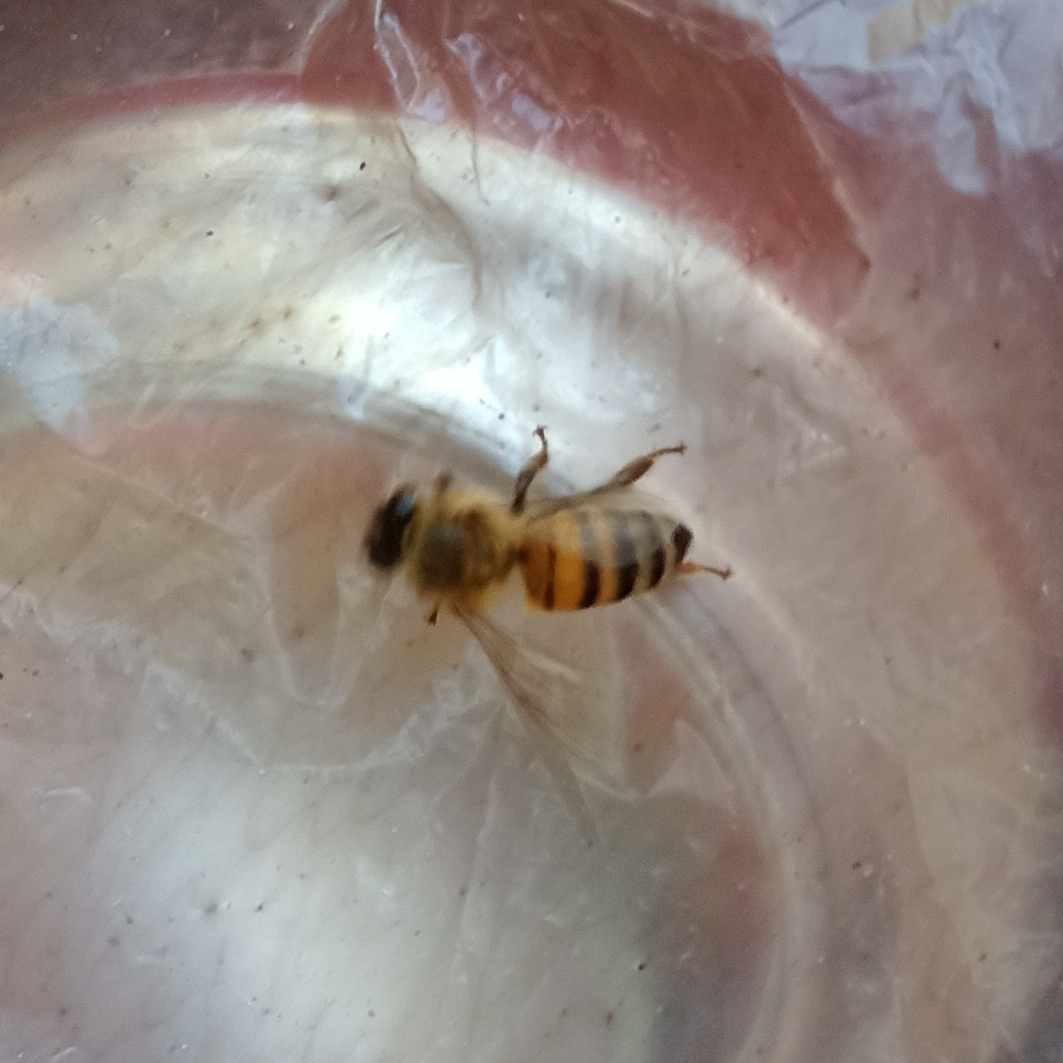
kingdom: Animalia
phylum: Arthropoda
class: Insecta
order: Hymenoptera
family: Apidae
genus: Apis
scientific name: Apis mellifera
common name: Honey bee
